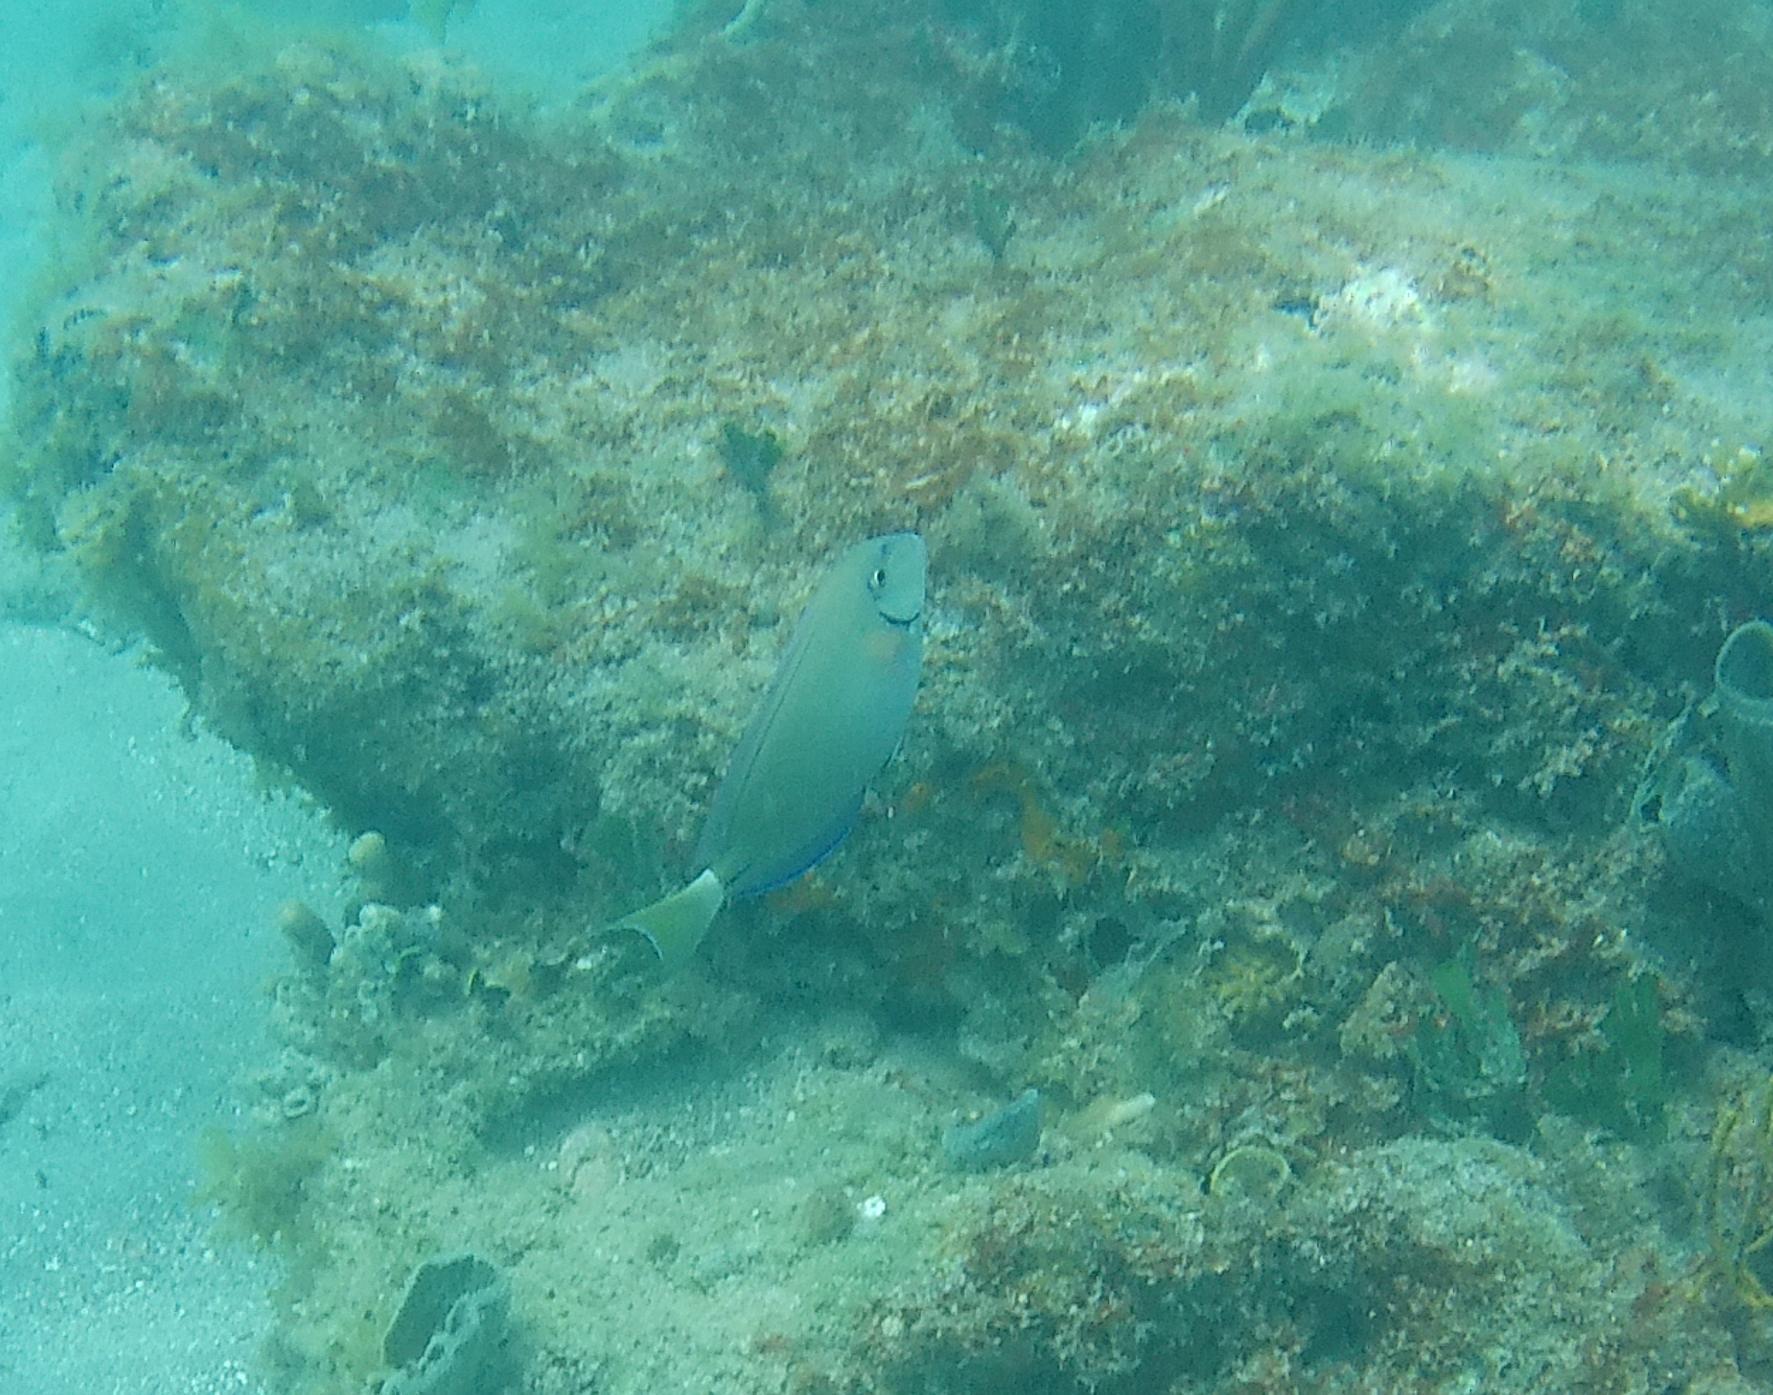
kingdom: Animalia
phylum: Chordata
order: Perciformes
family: Acanthuridae
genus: Acanthurus
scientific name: Acanthurus bahianus
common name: Ocean surgeon
